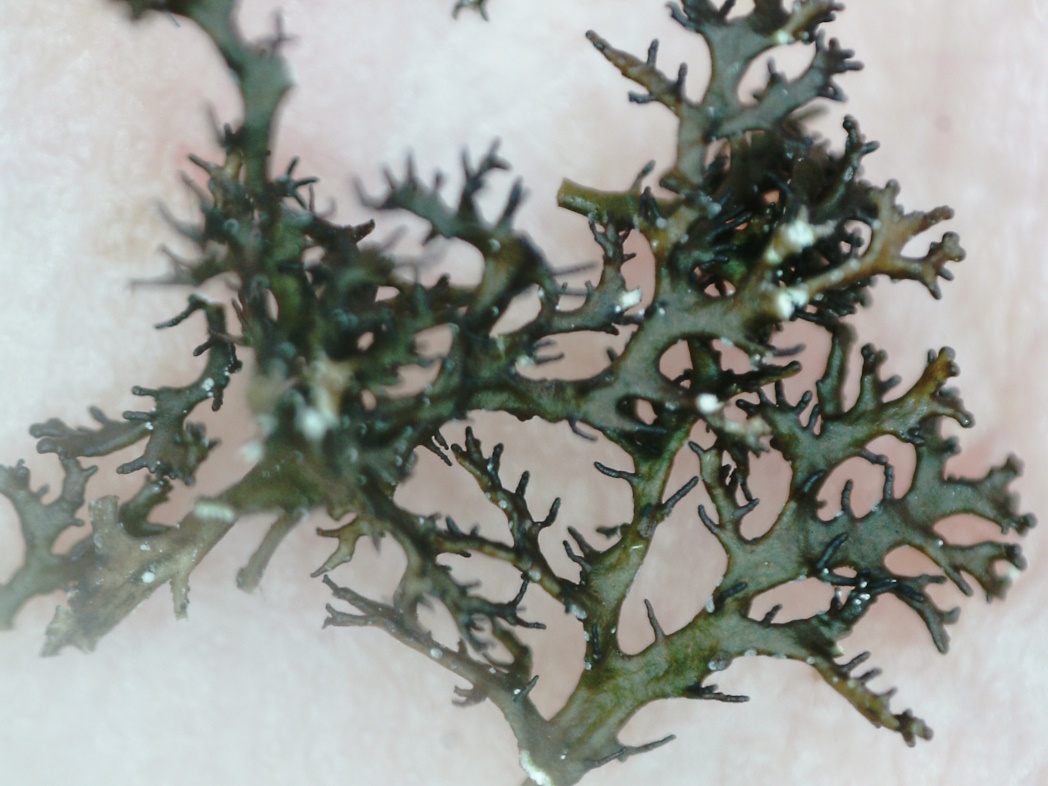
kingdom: Fungi
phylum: Ascomycota
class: Lecanoromycetes
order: Lecanorales
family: Parmeliaceae
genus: Cetraria
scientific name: Cetraria odontella
